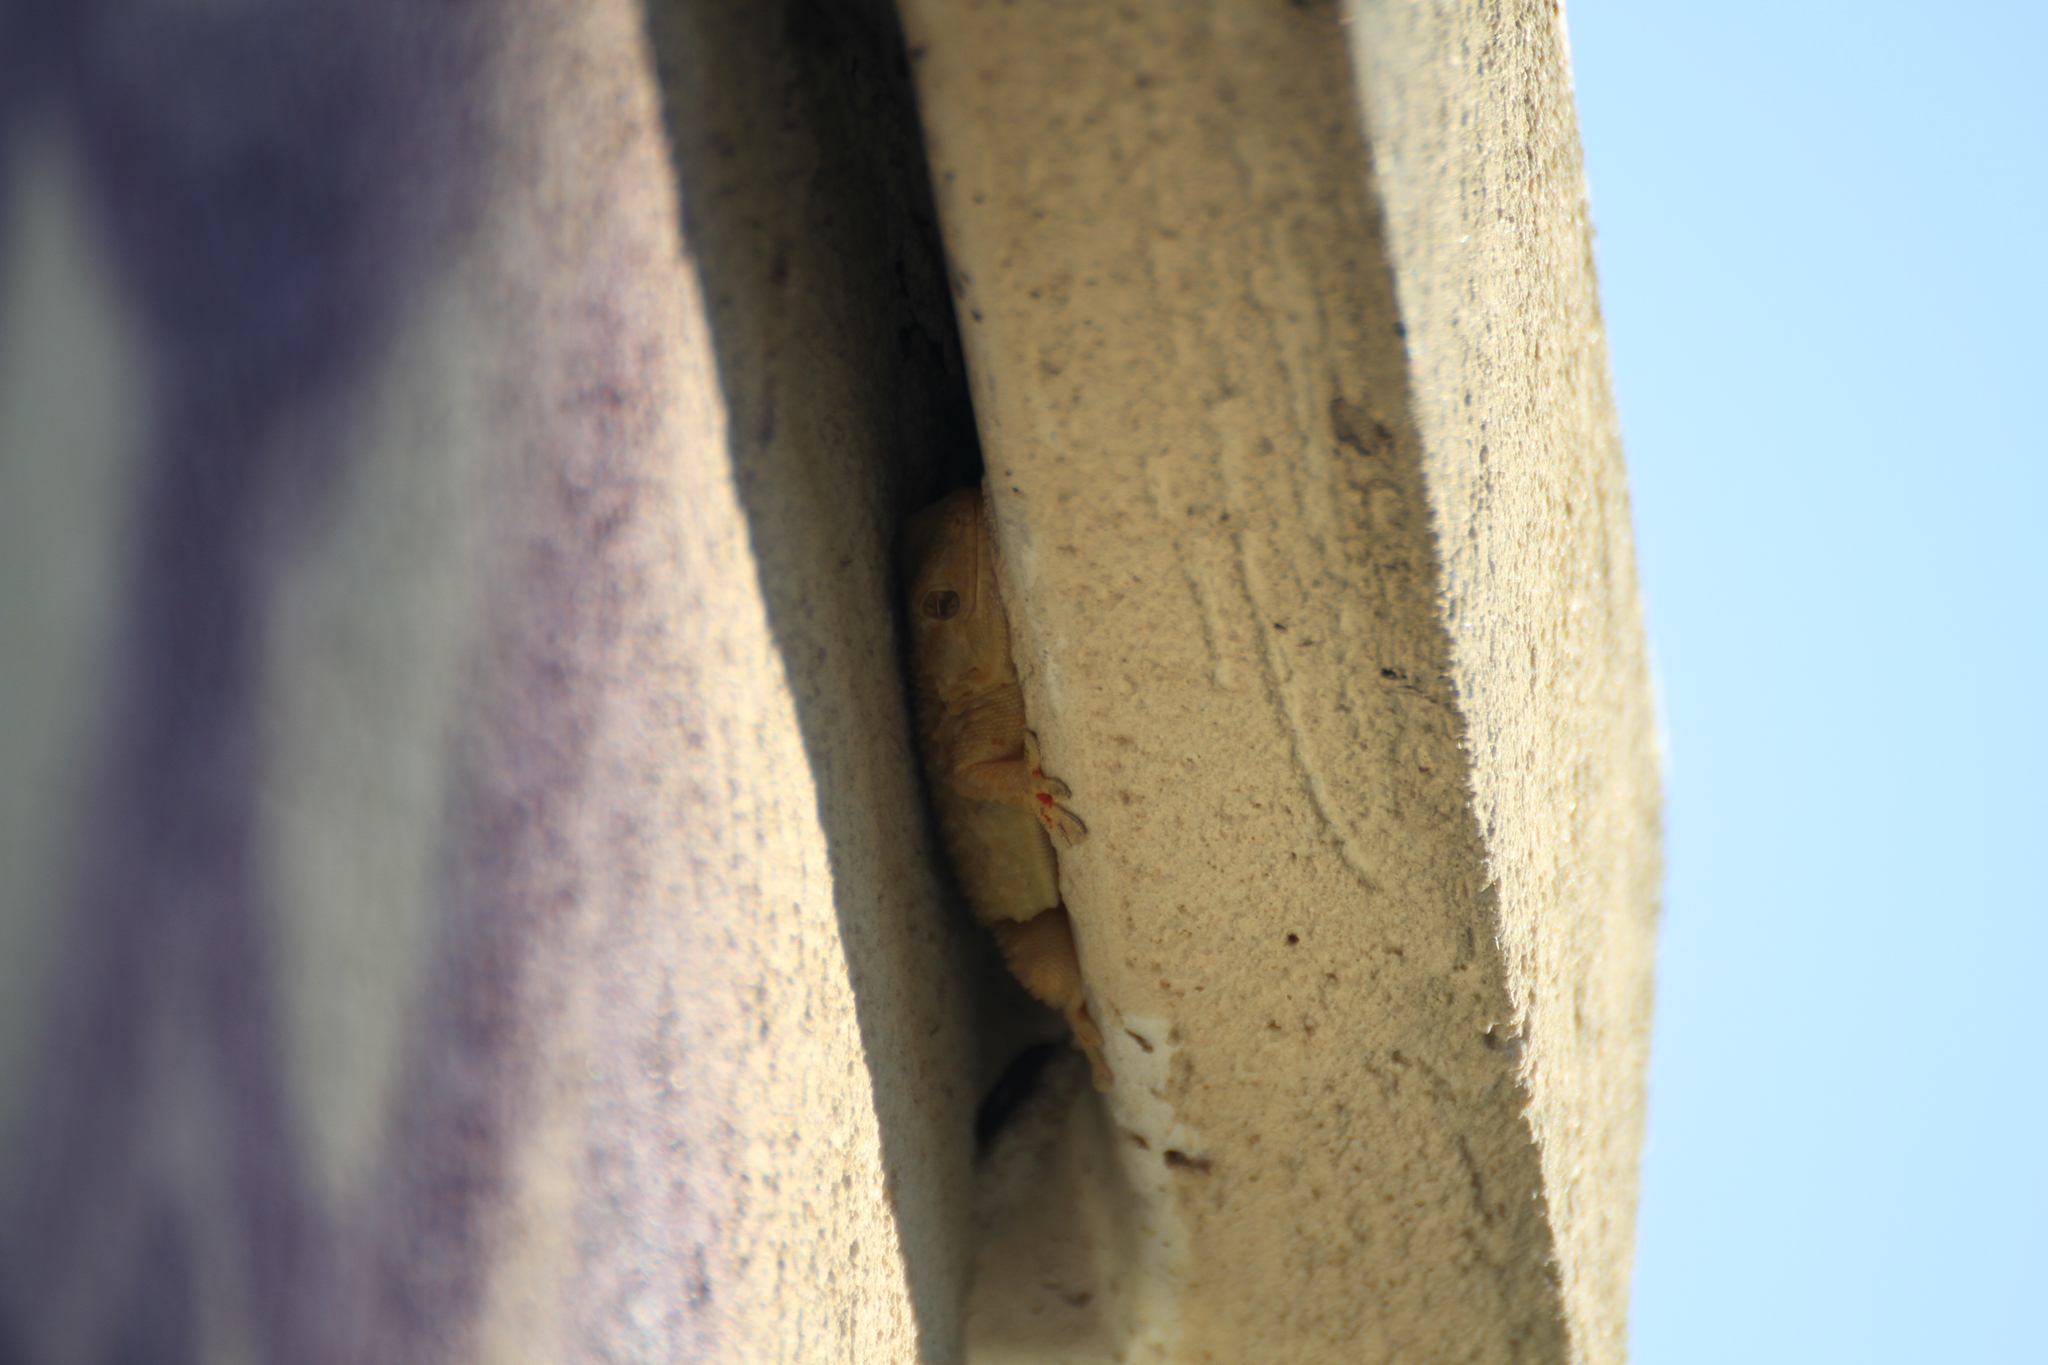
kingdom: Animalia
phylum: Chordata
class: Squamata
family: Phyllodactylidae
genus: Tarentola
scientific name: Tarentola mauritanica
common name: Moorish gecko
